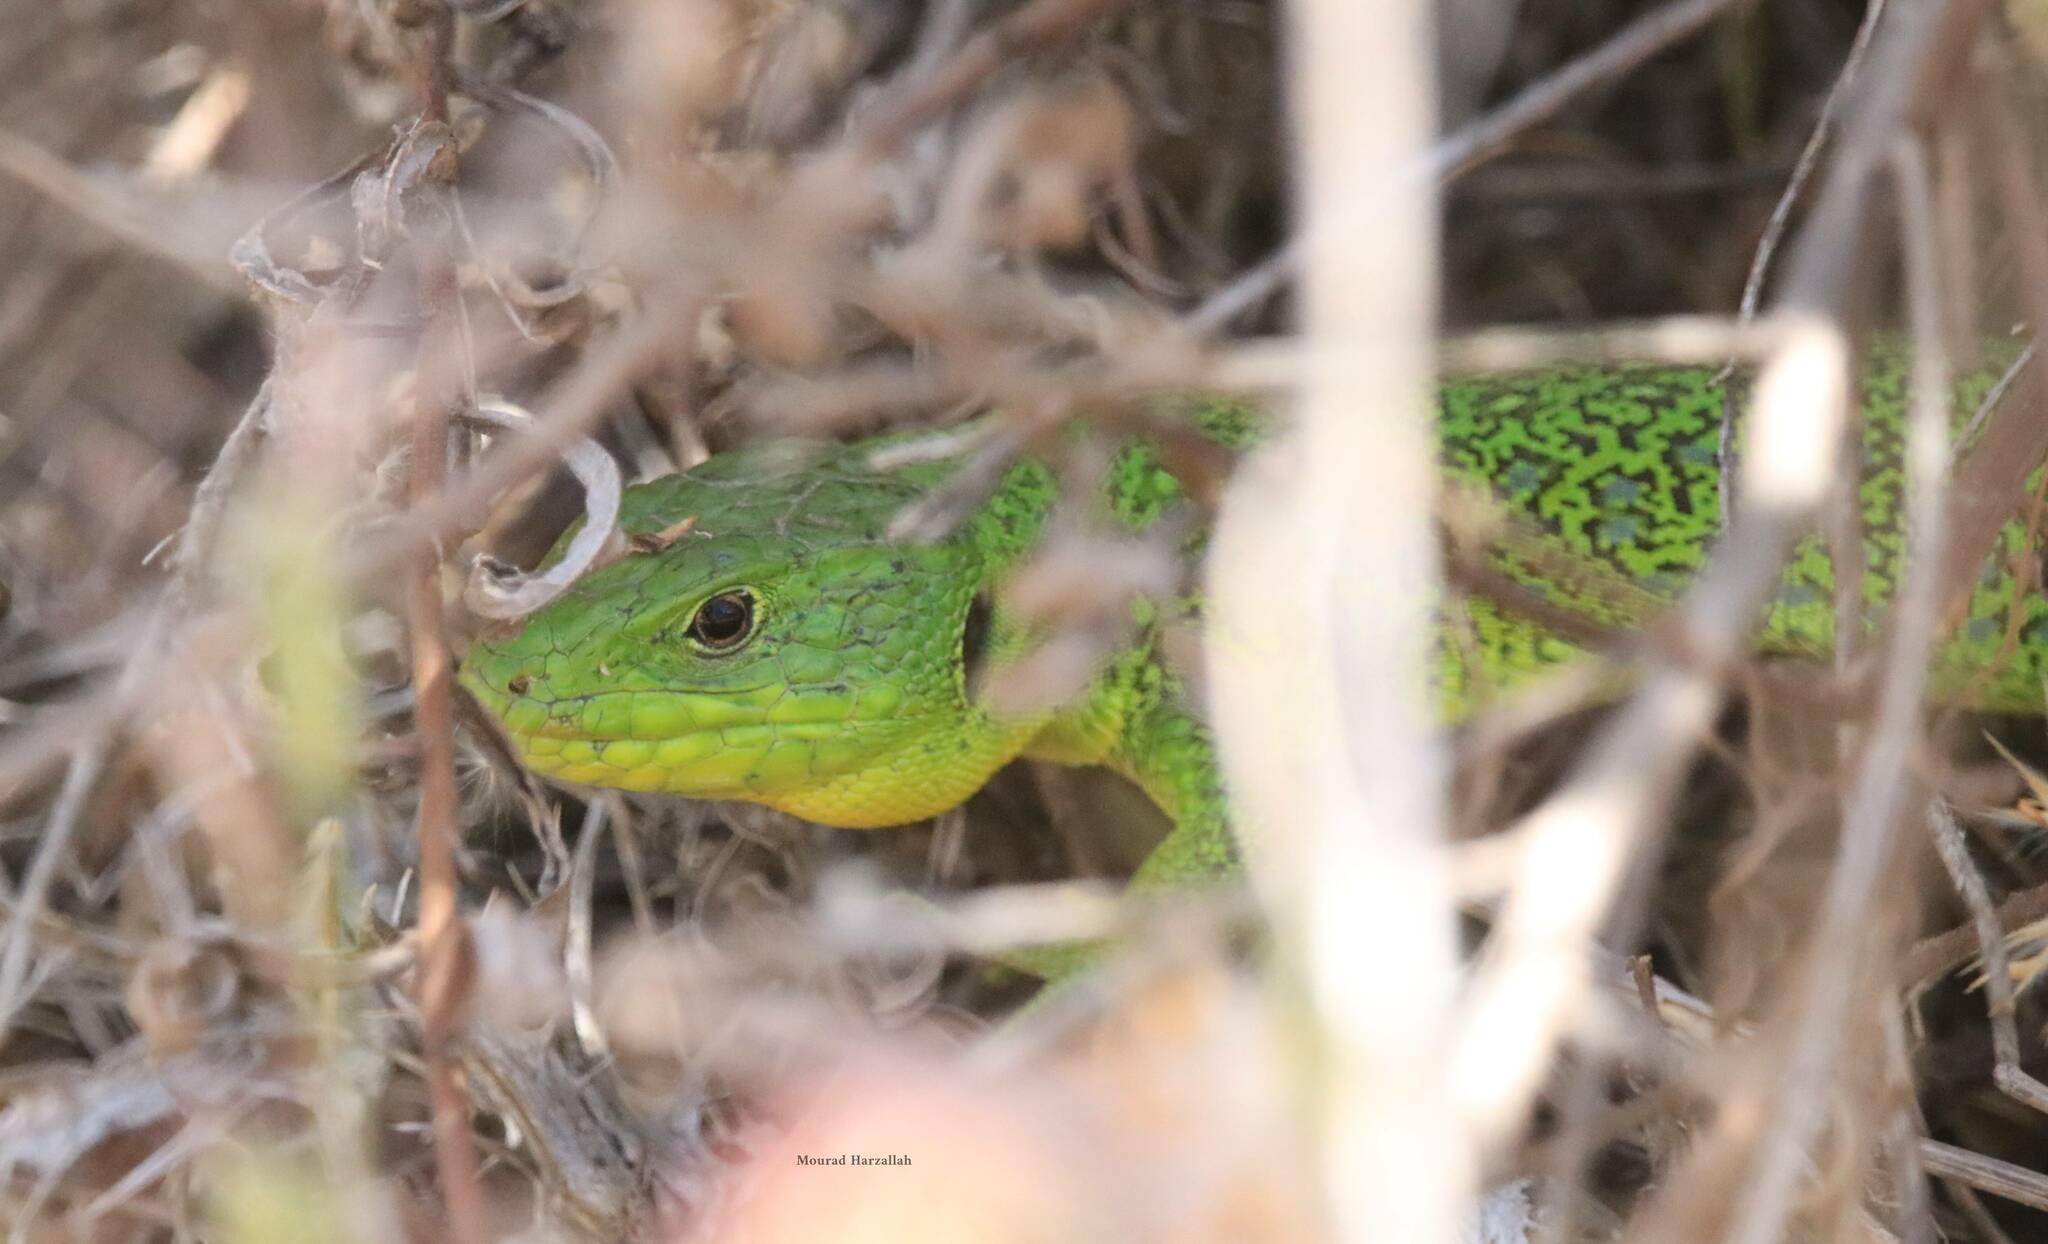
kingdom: Animalia
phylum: Chordata
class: Squamata
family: Lacertidae
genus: Timon
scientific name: Timon pater
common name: North african ocellated lizard
